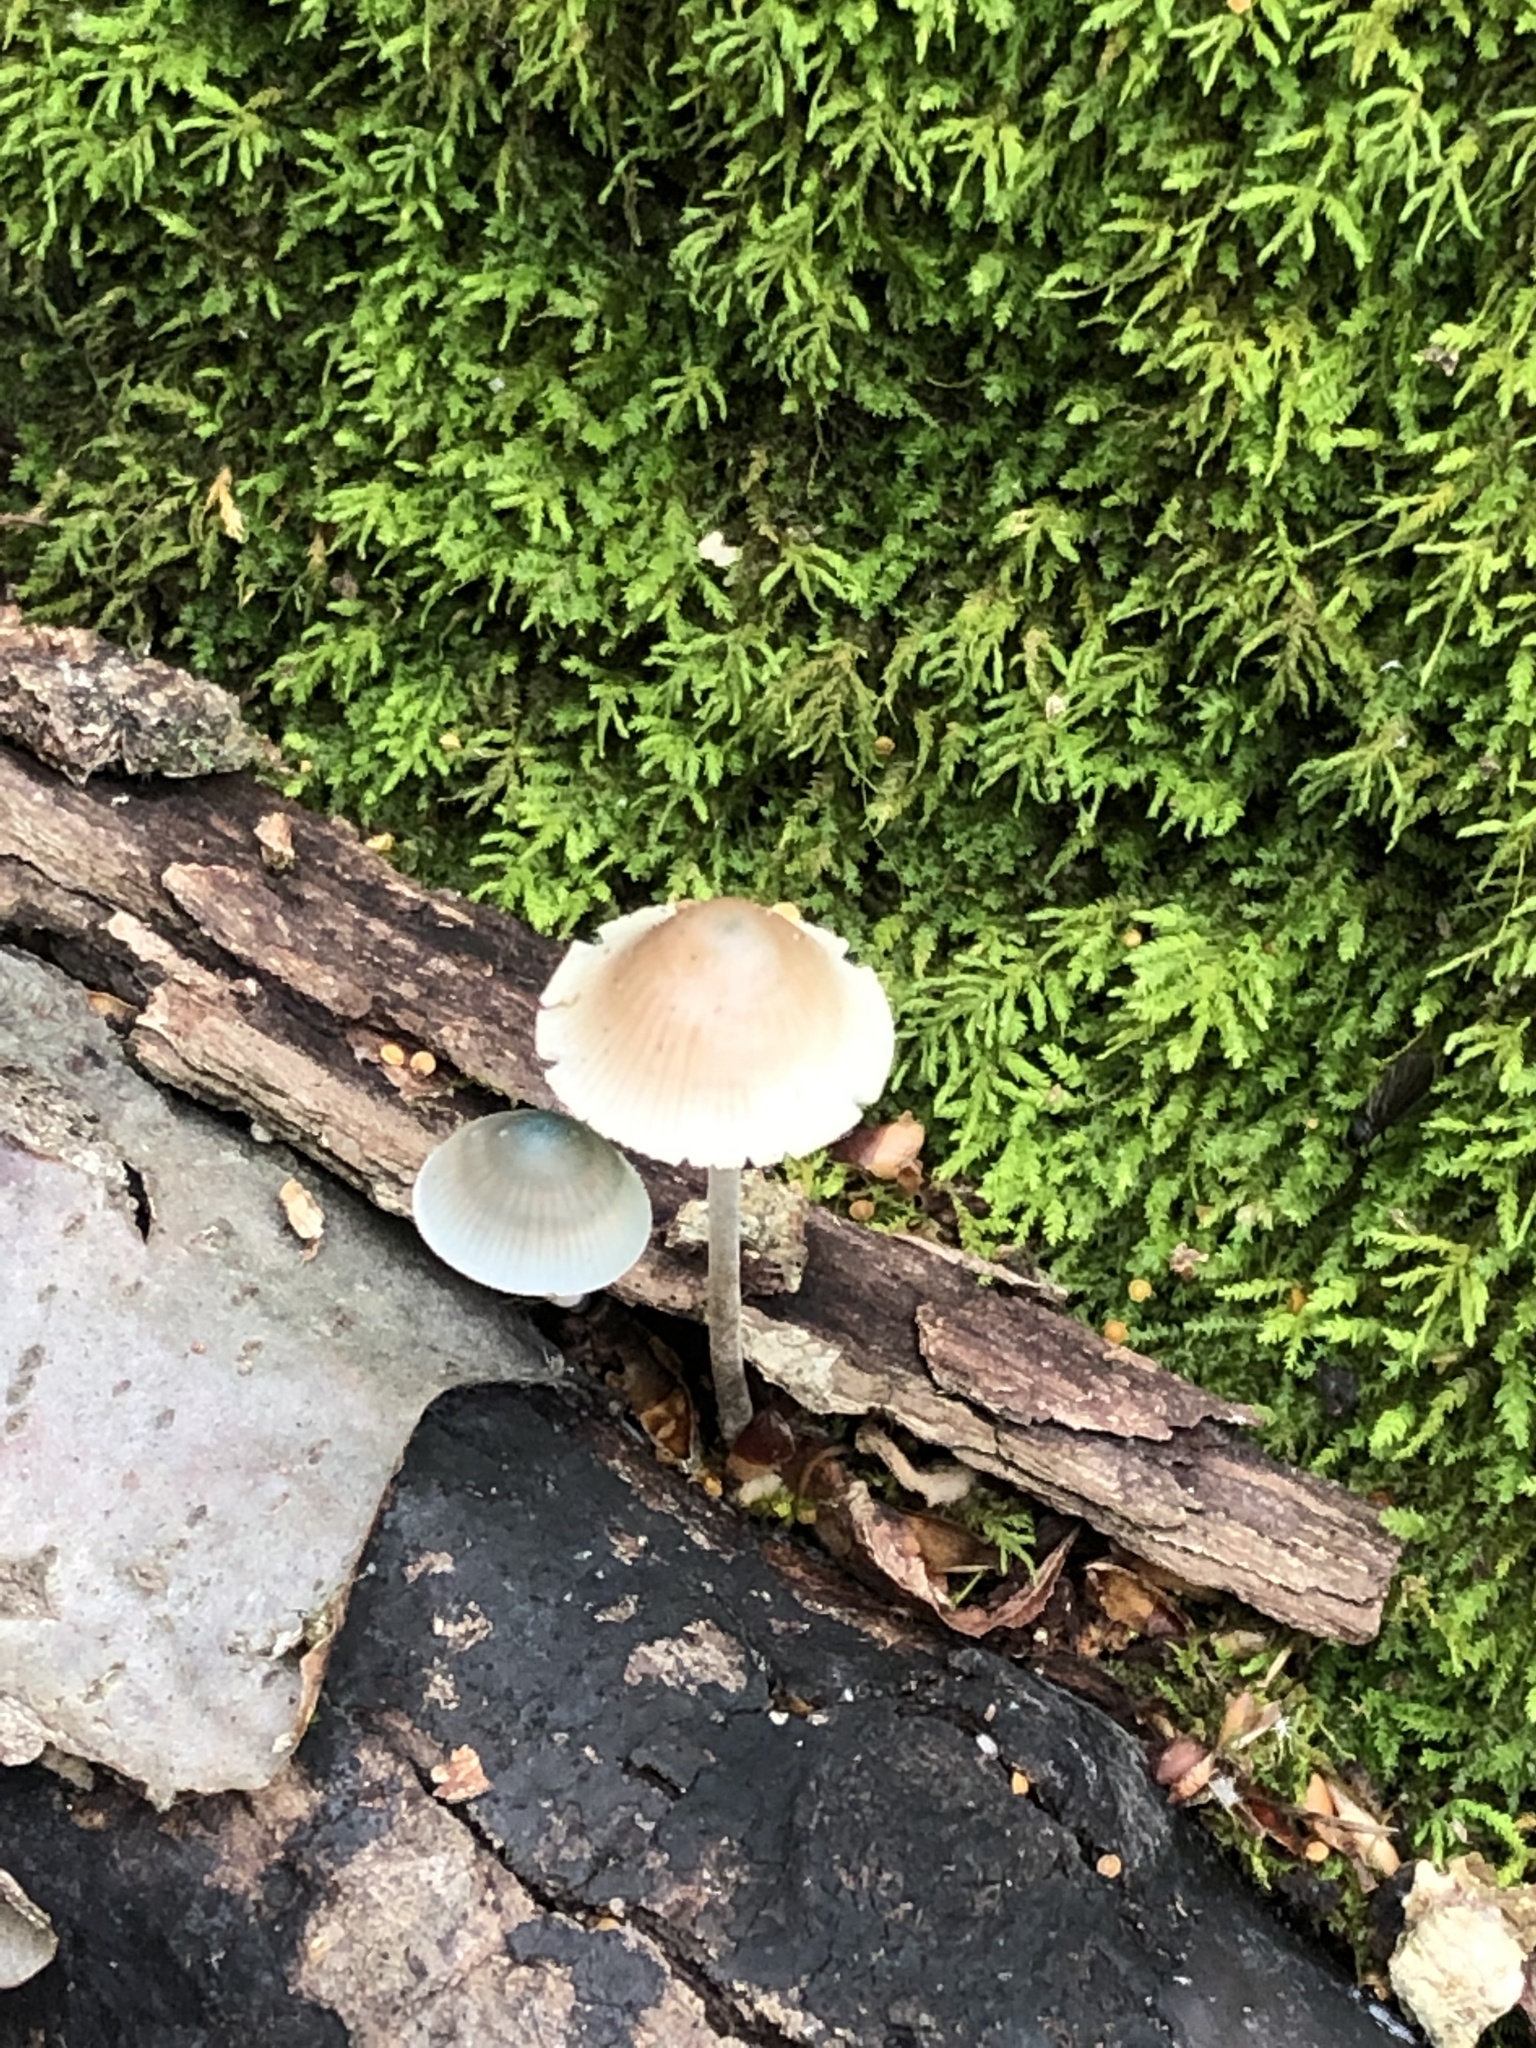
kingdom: Fungi
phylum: Basidiomycota
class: Agaricomycetes
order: Agaricales
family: Mycenaceae
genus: Mycena
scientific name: Mycena subcaerulea
